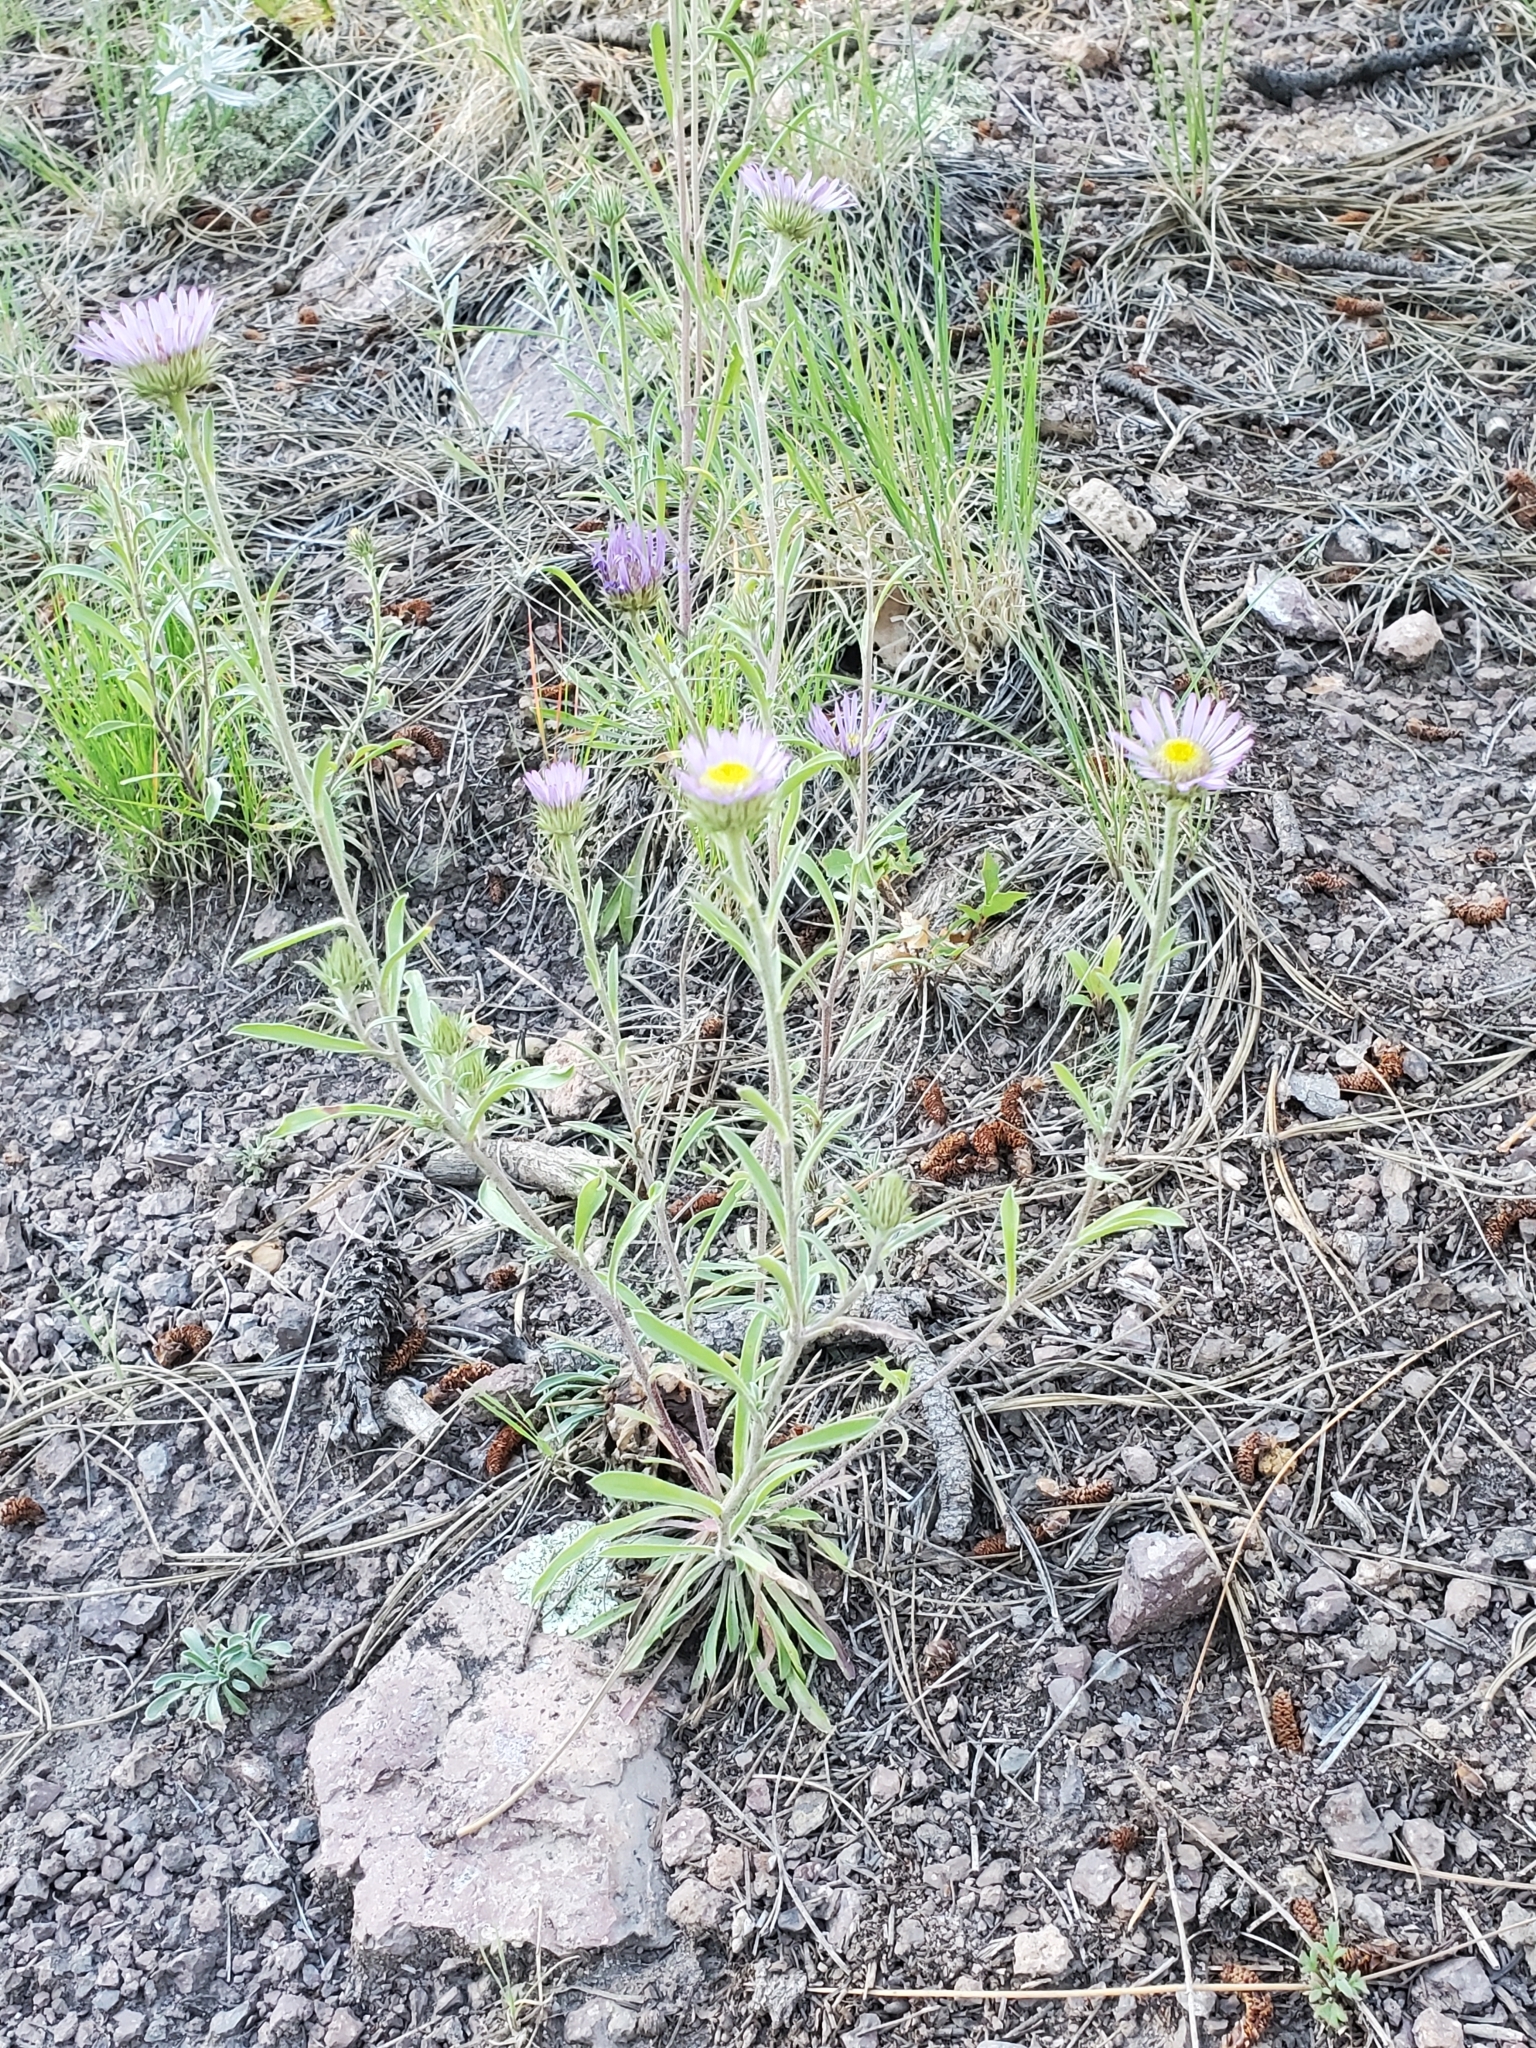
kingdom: Plantae
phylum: Tracheophyta
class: Magnoliopsida
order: Asterales
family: Asteraceae
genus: Townsendia
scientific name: Townsendia eximia
